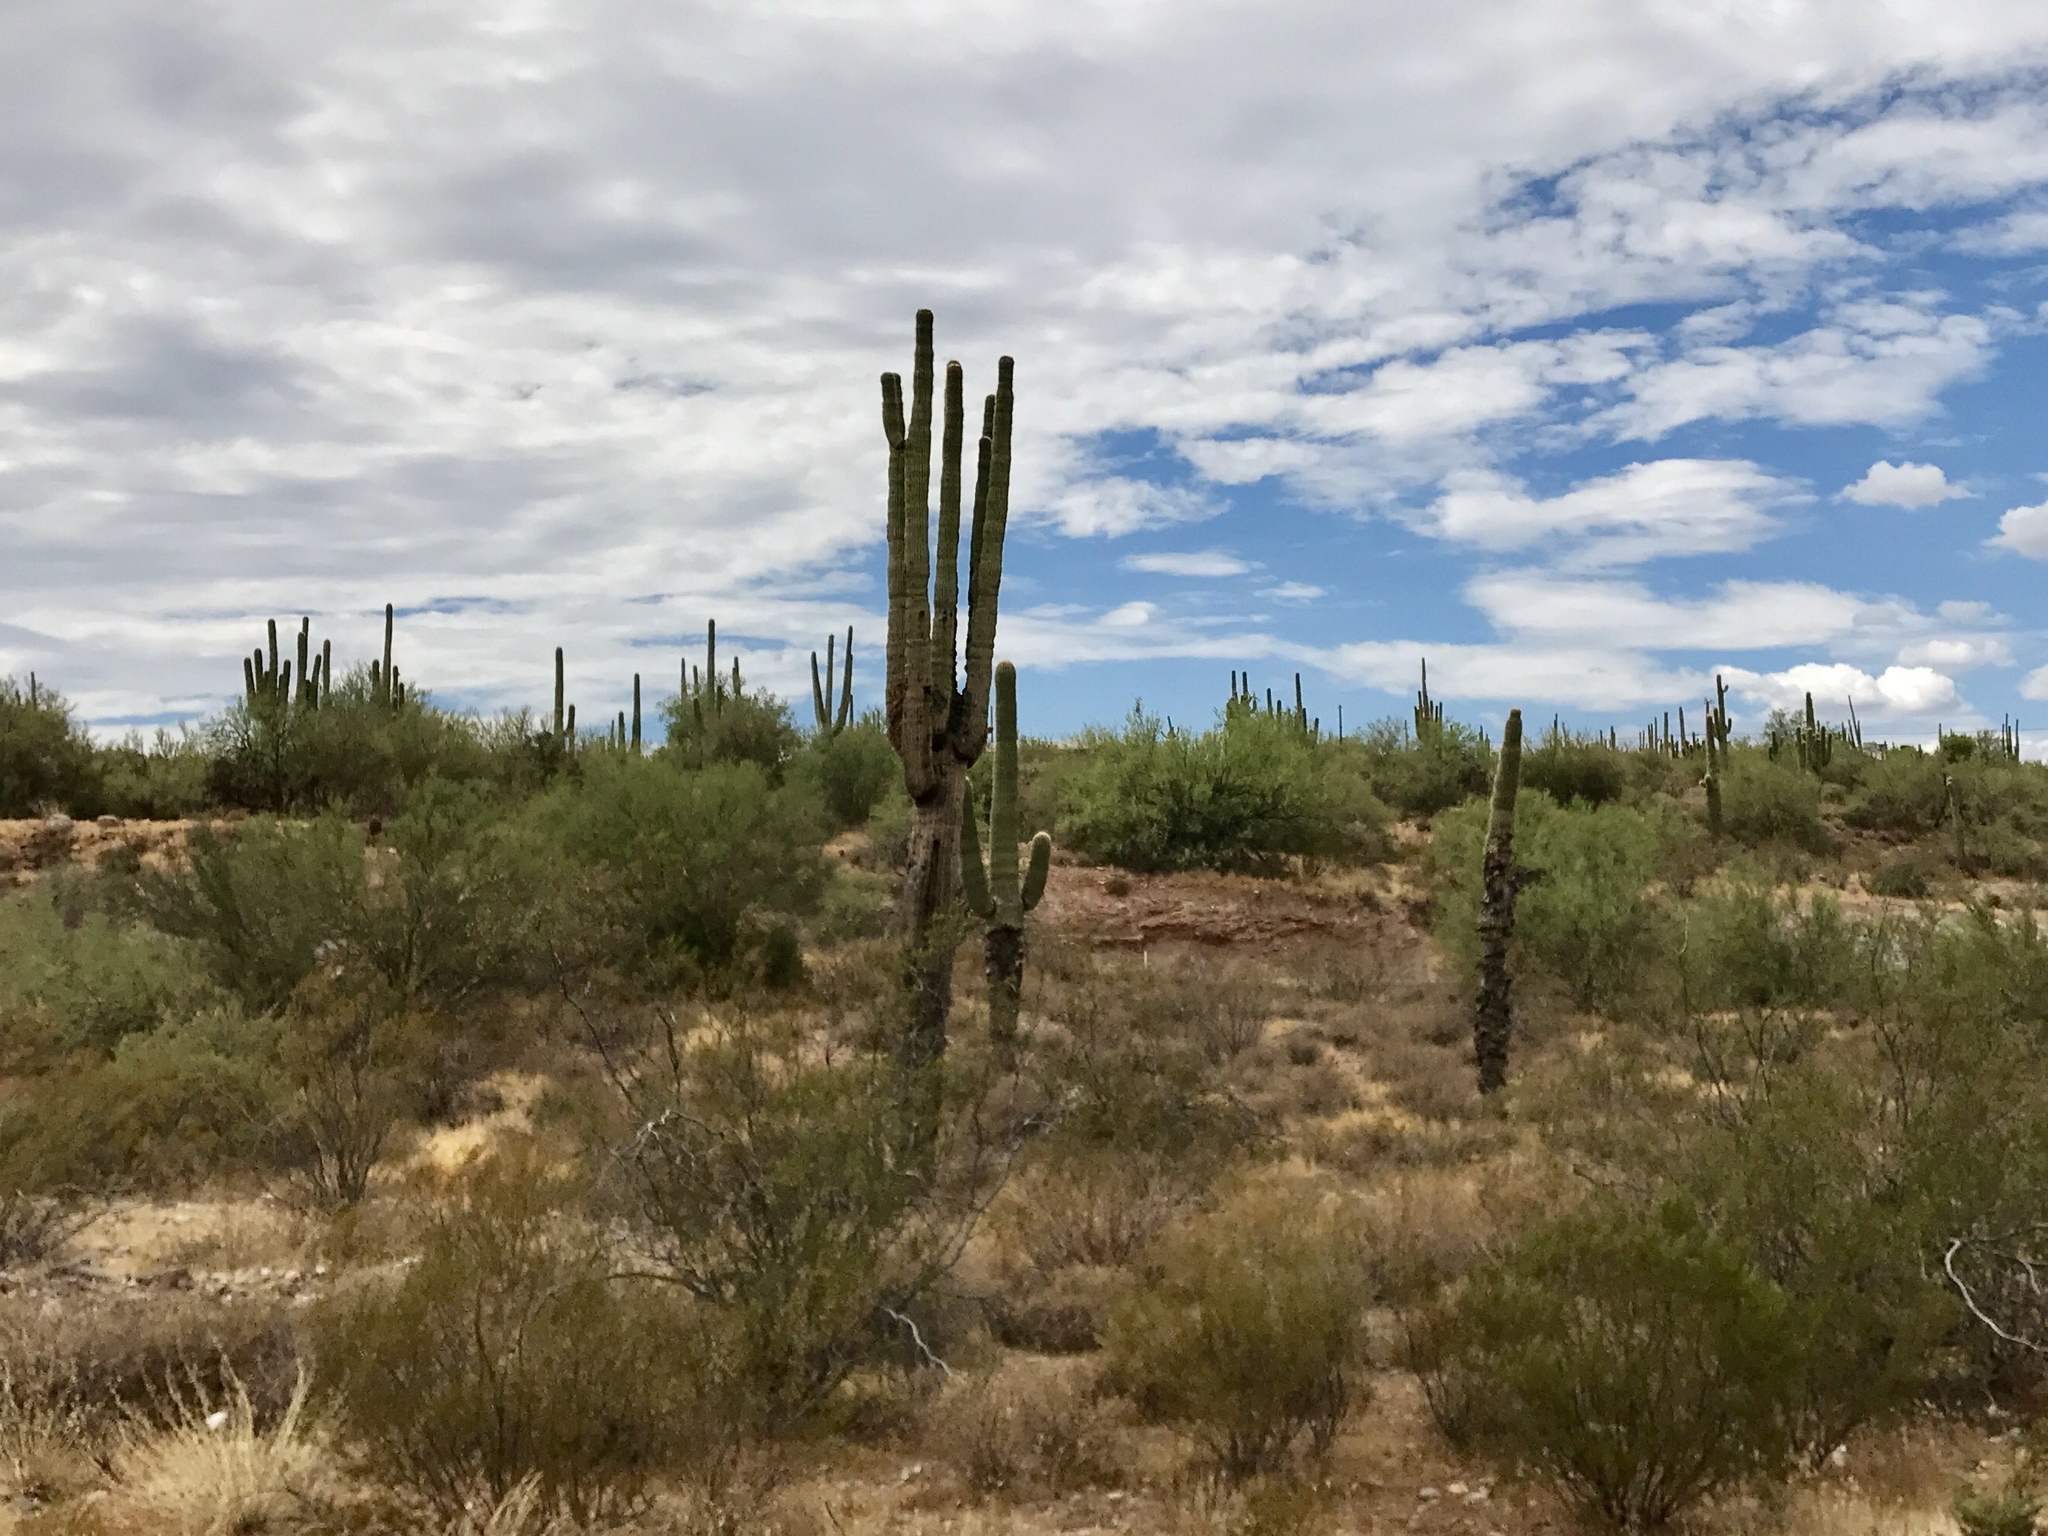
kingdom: Plantae
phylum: Tracheophyta
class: Magnoliopsida
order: Caryophyllales
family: Cactaceae
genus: Carnegiea
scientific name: Carnegiea gigantea
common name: Saguaro
